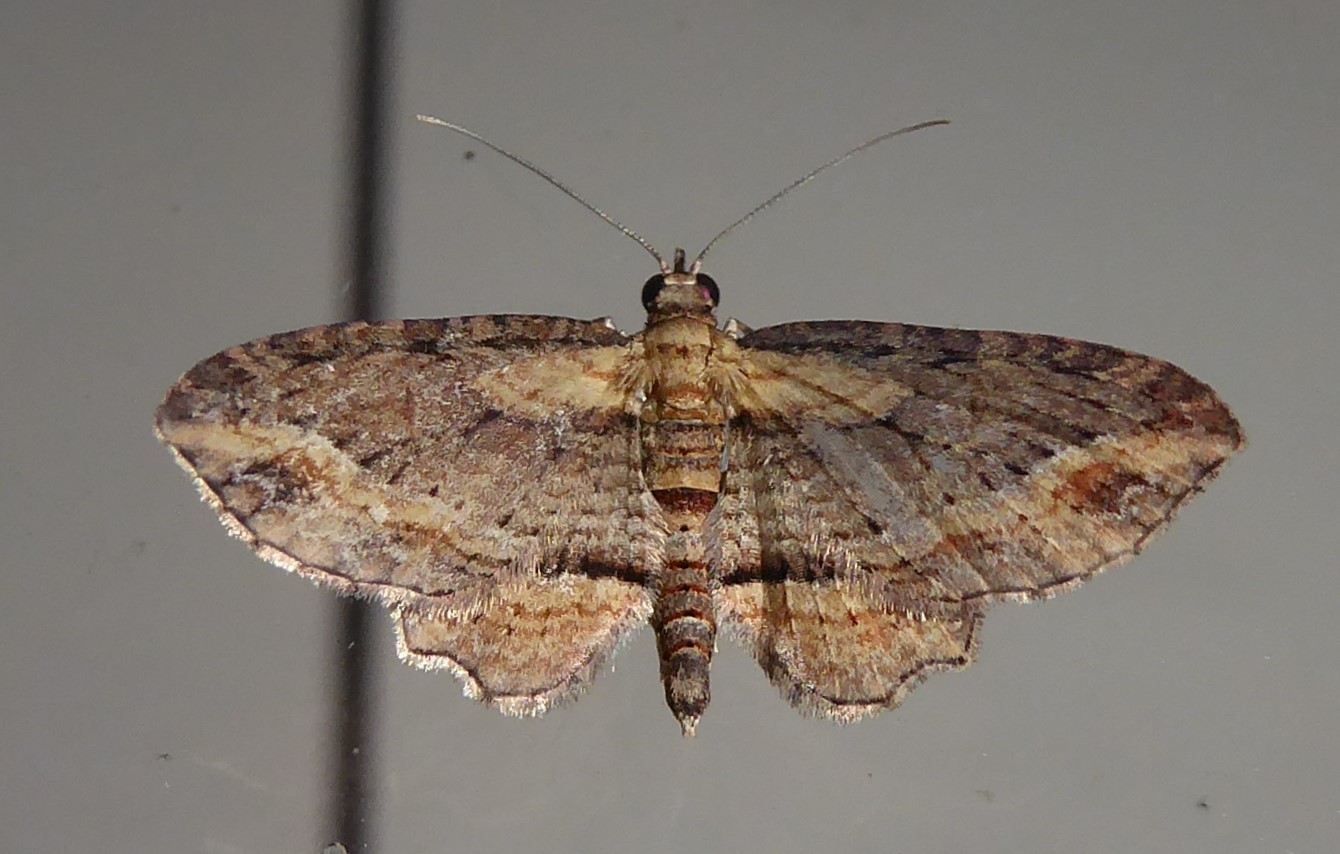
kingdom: Animalia
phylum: Arthropoda
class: Insecta
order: Lepidoptera
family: Geometridae
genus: Chloroclystis
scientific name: Chloroclystis filata
